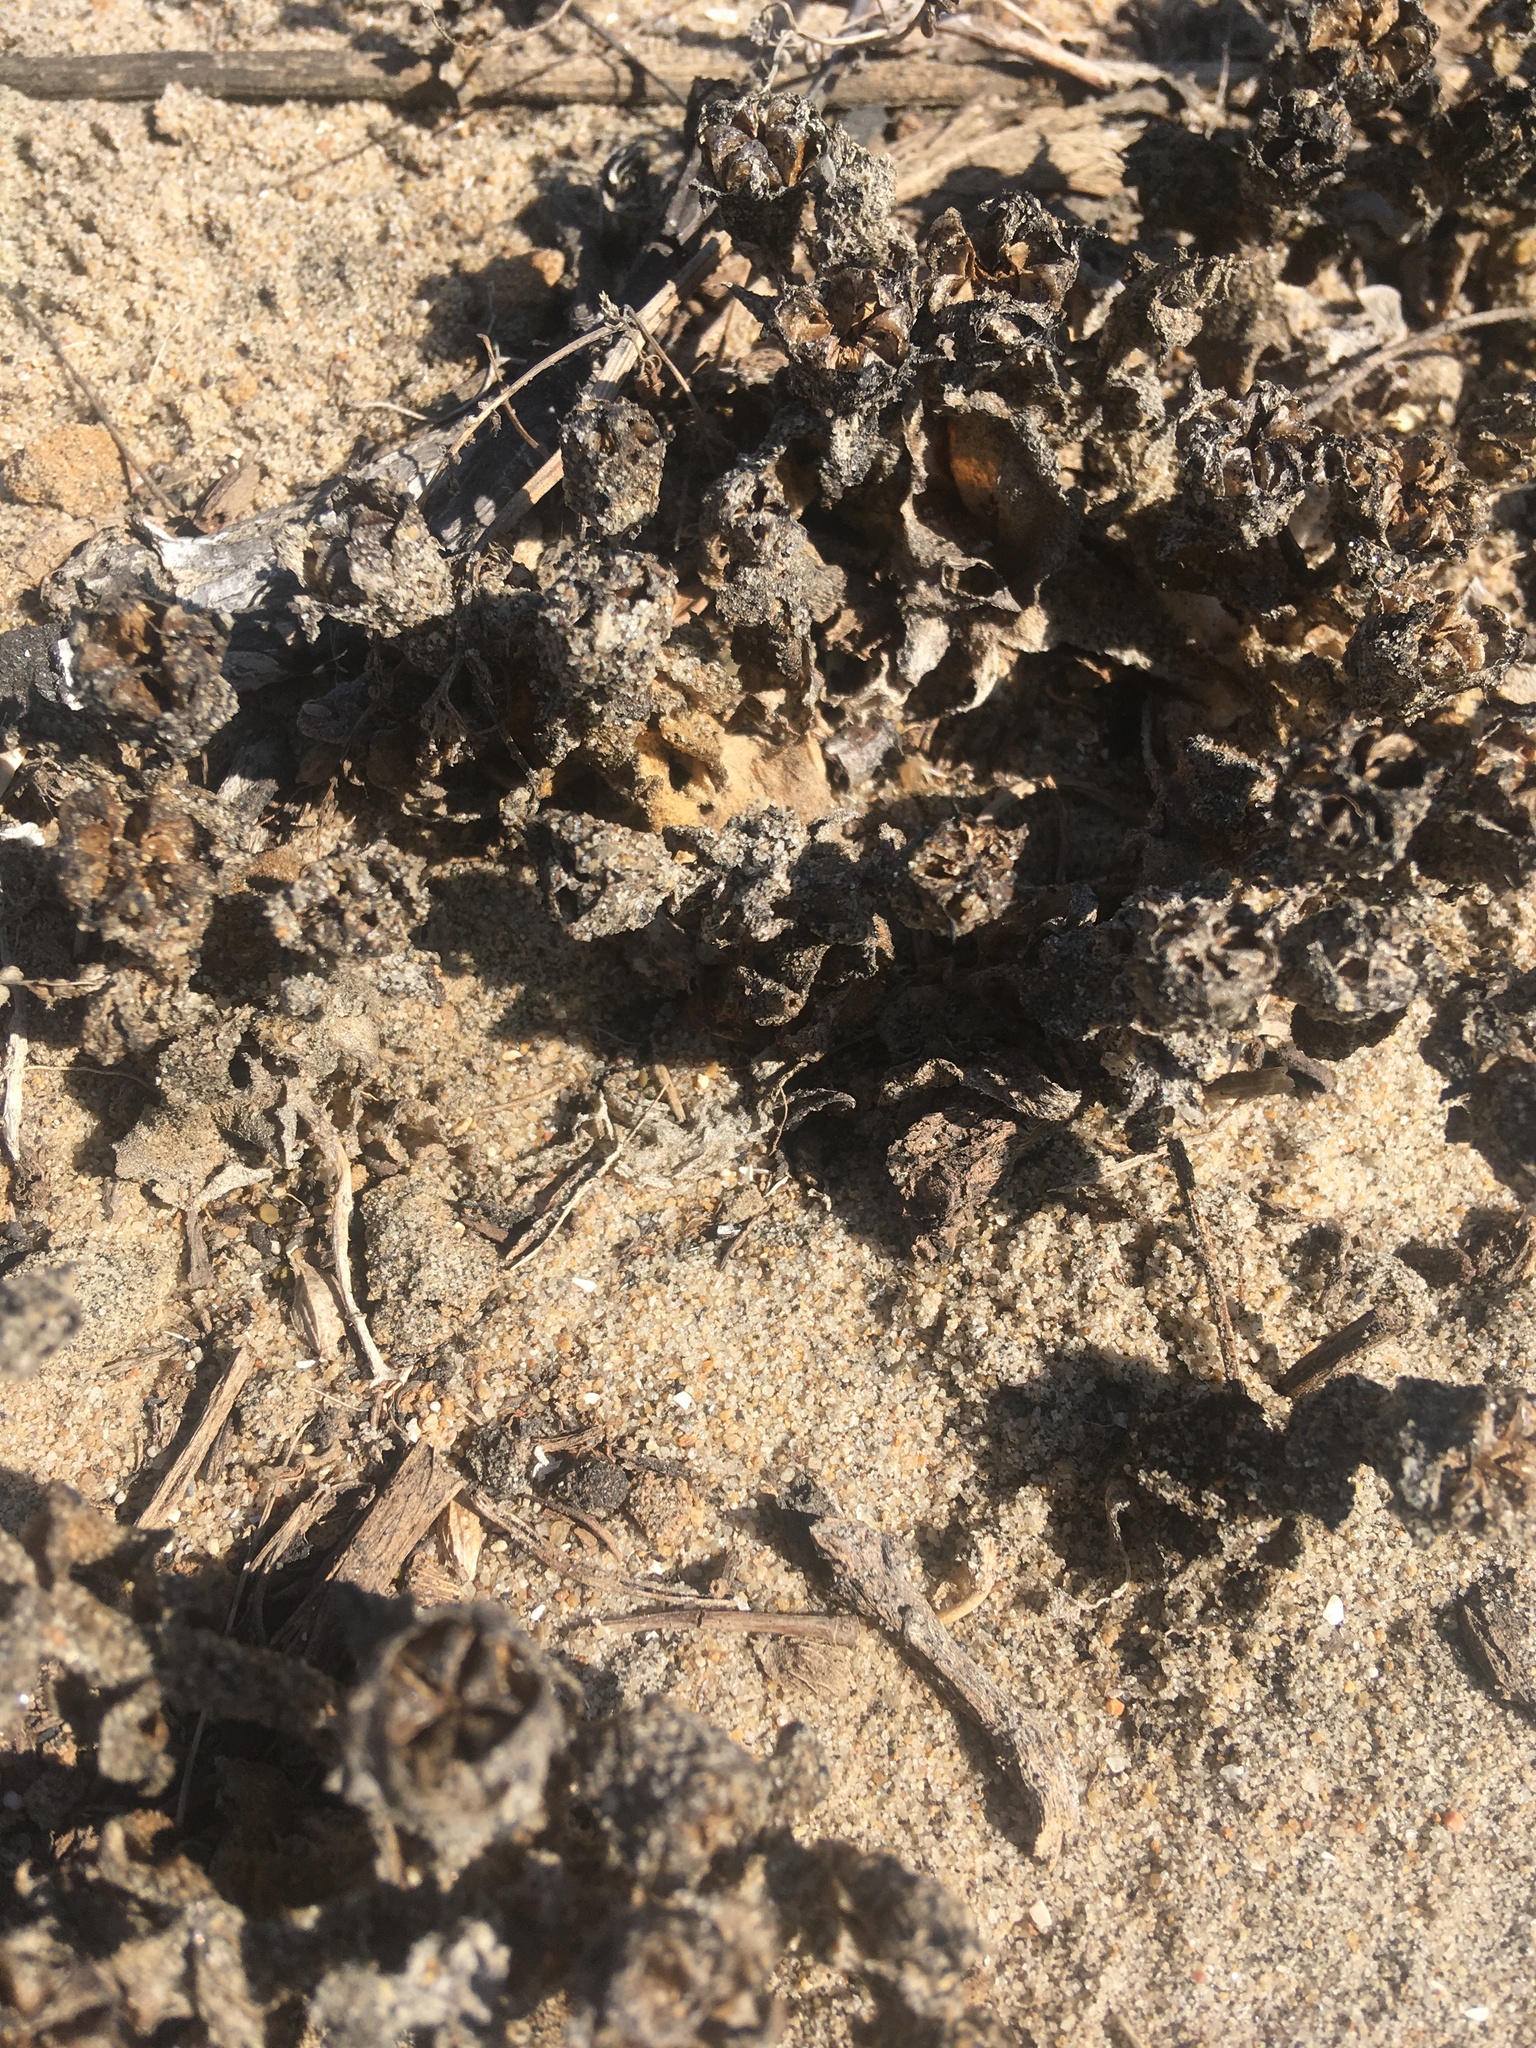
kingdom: Plantae
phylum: Tracheophyta
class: Magnoliopsida
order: Caryophyllales
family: Aizoaceae
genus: Mesembryanthemum
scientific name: Mesembryanthemum crystallinum
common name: Common iceplant
